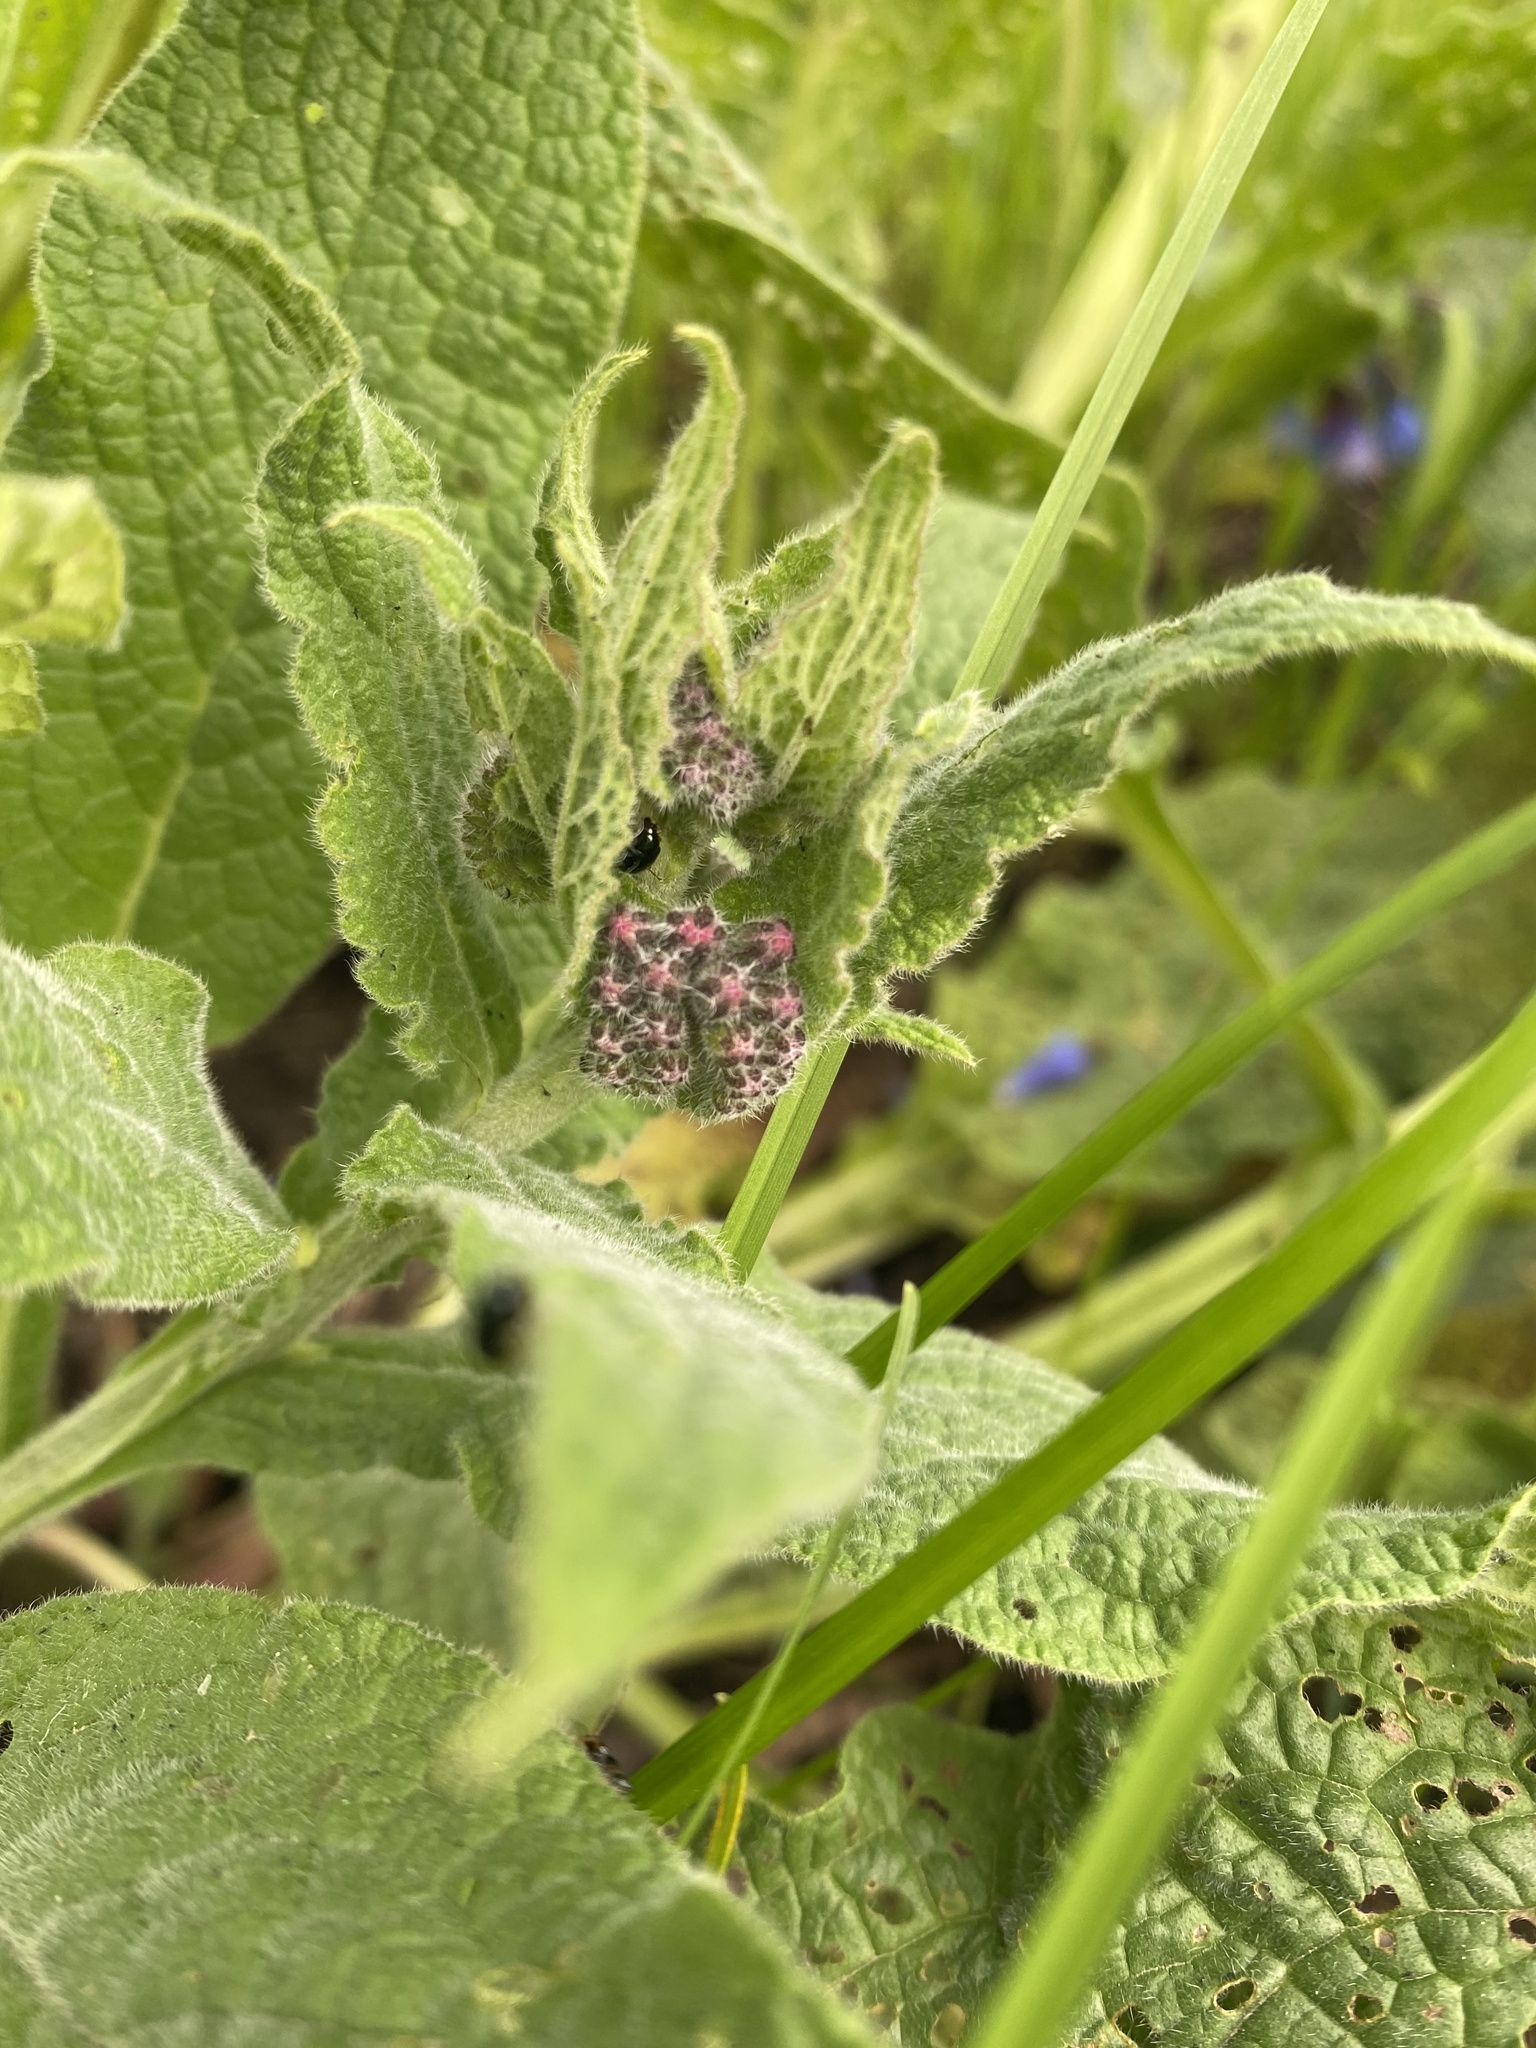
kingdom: Plantae
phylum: Tracheophyta
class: Magnoliopsida
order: Boraginales
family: Boraginaceae
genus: Symphytum
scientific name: Symphytum asperum
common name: Prickly comfrey
